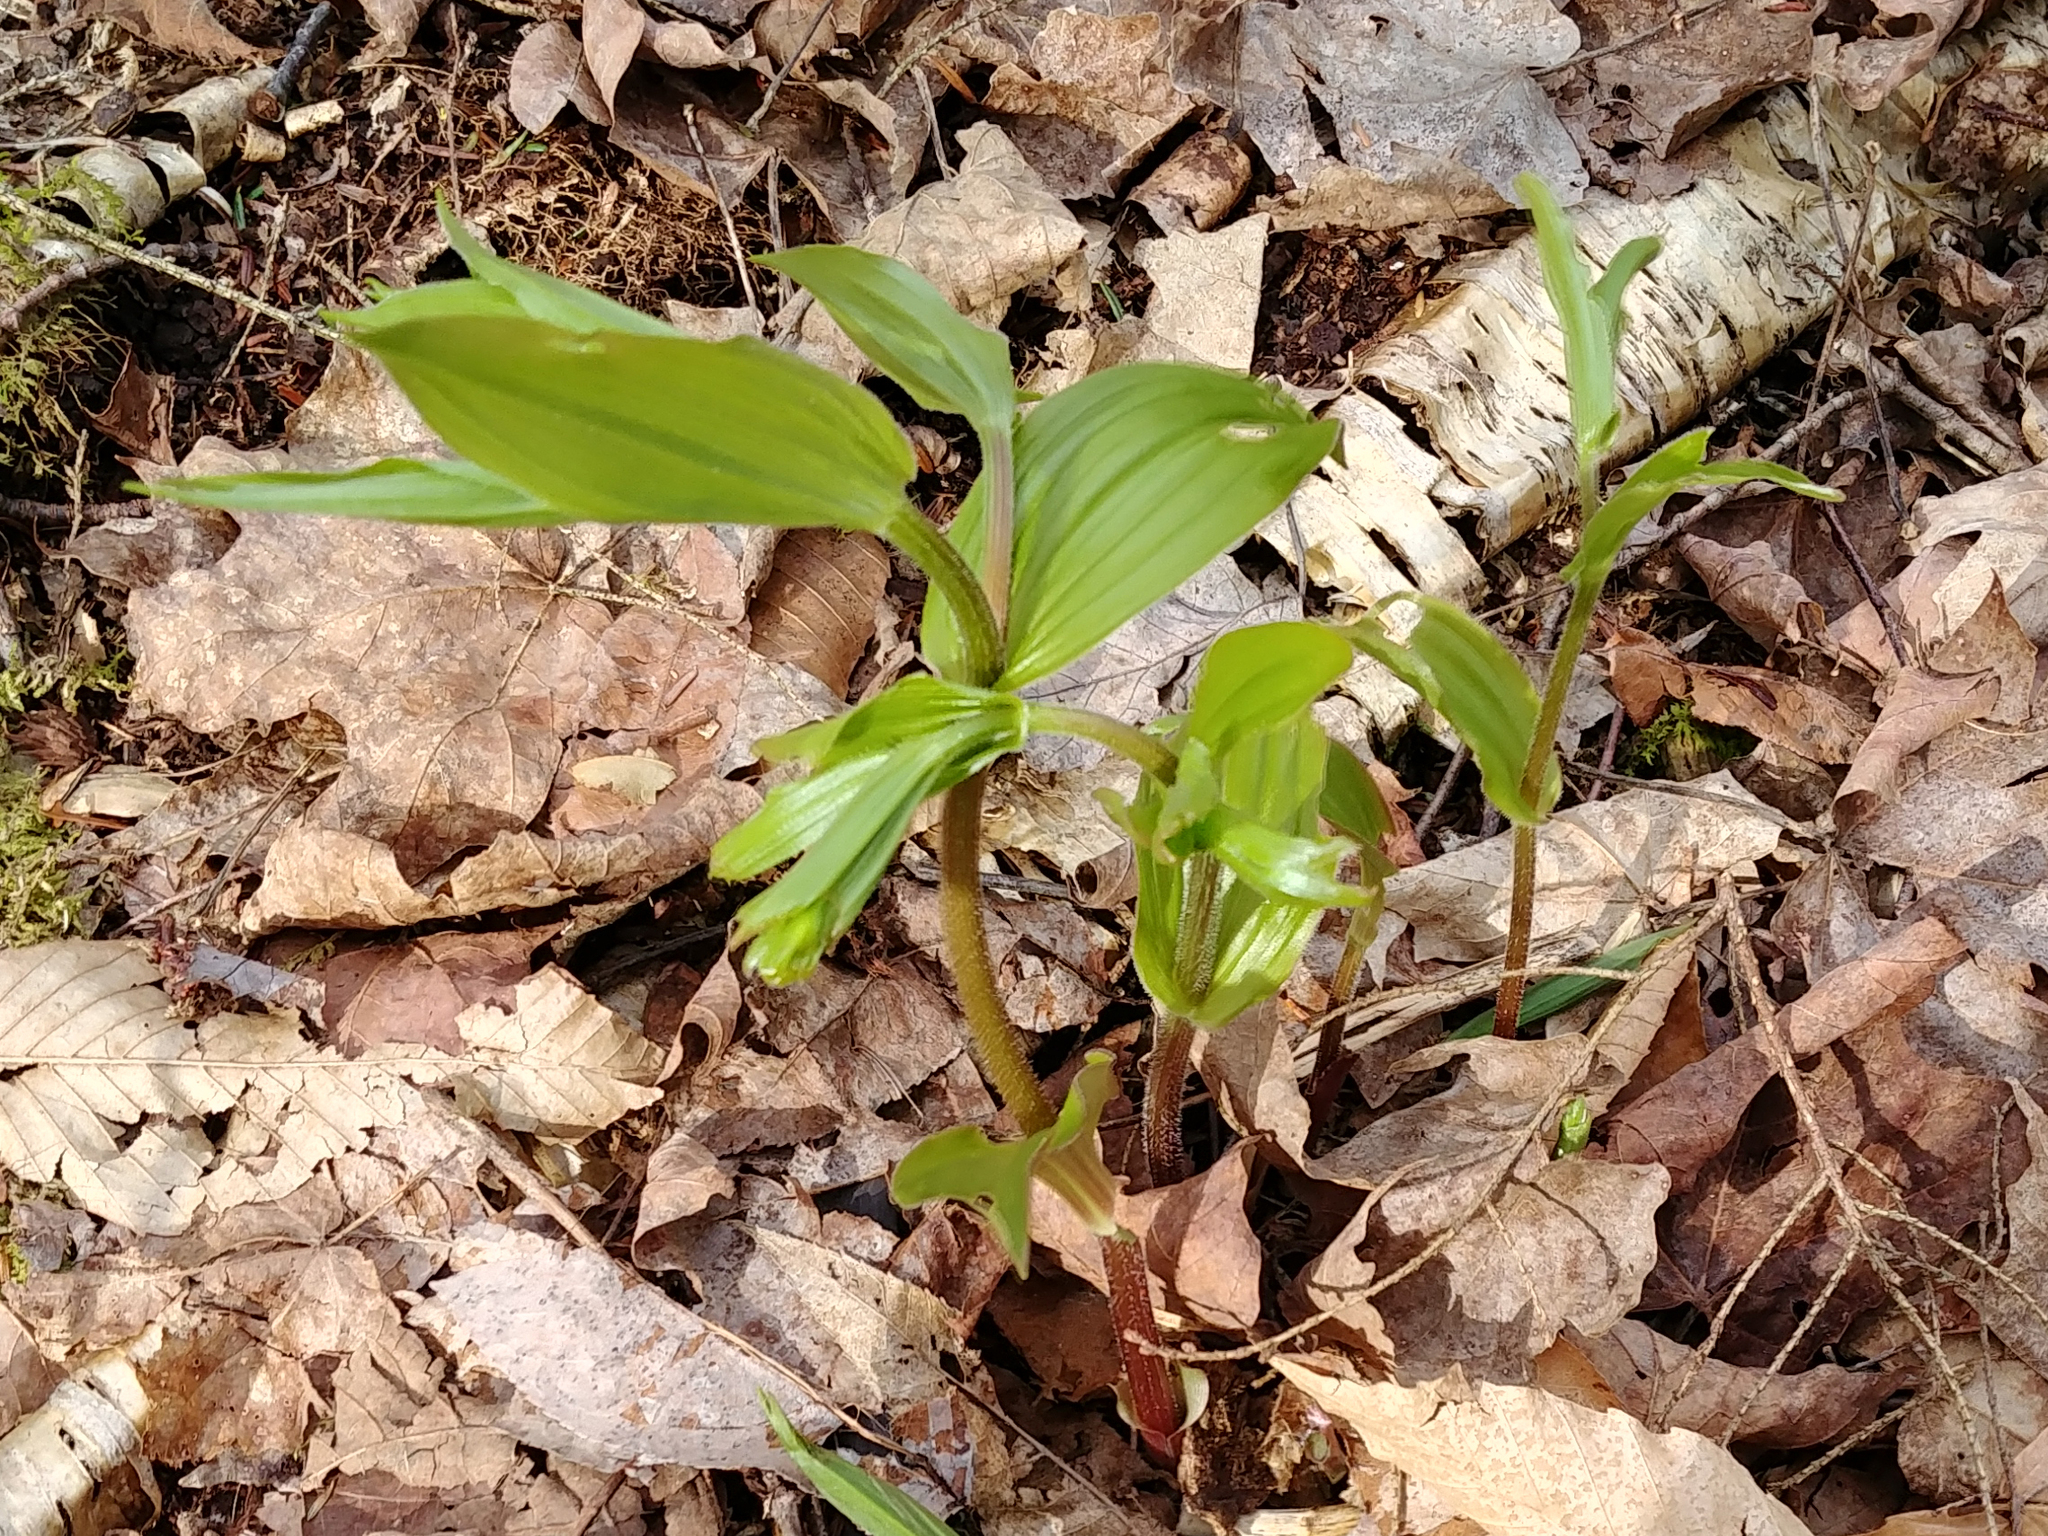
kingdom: Plantae
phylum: Tracheophyta
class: Liliopsida
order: Liliales
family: Liliaceae
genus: Streptopus
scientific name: Streptopus lanceolatus
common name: Rose mandarin
